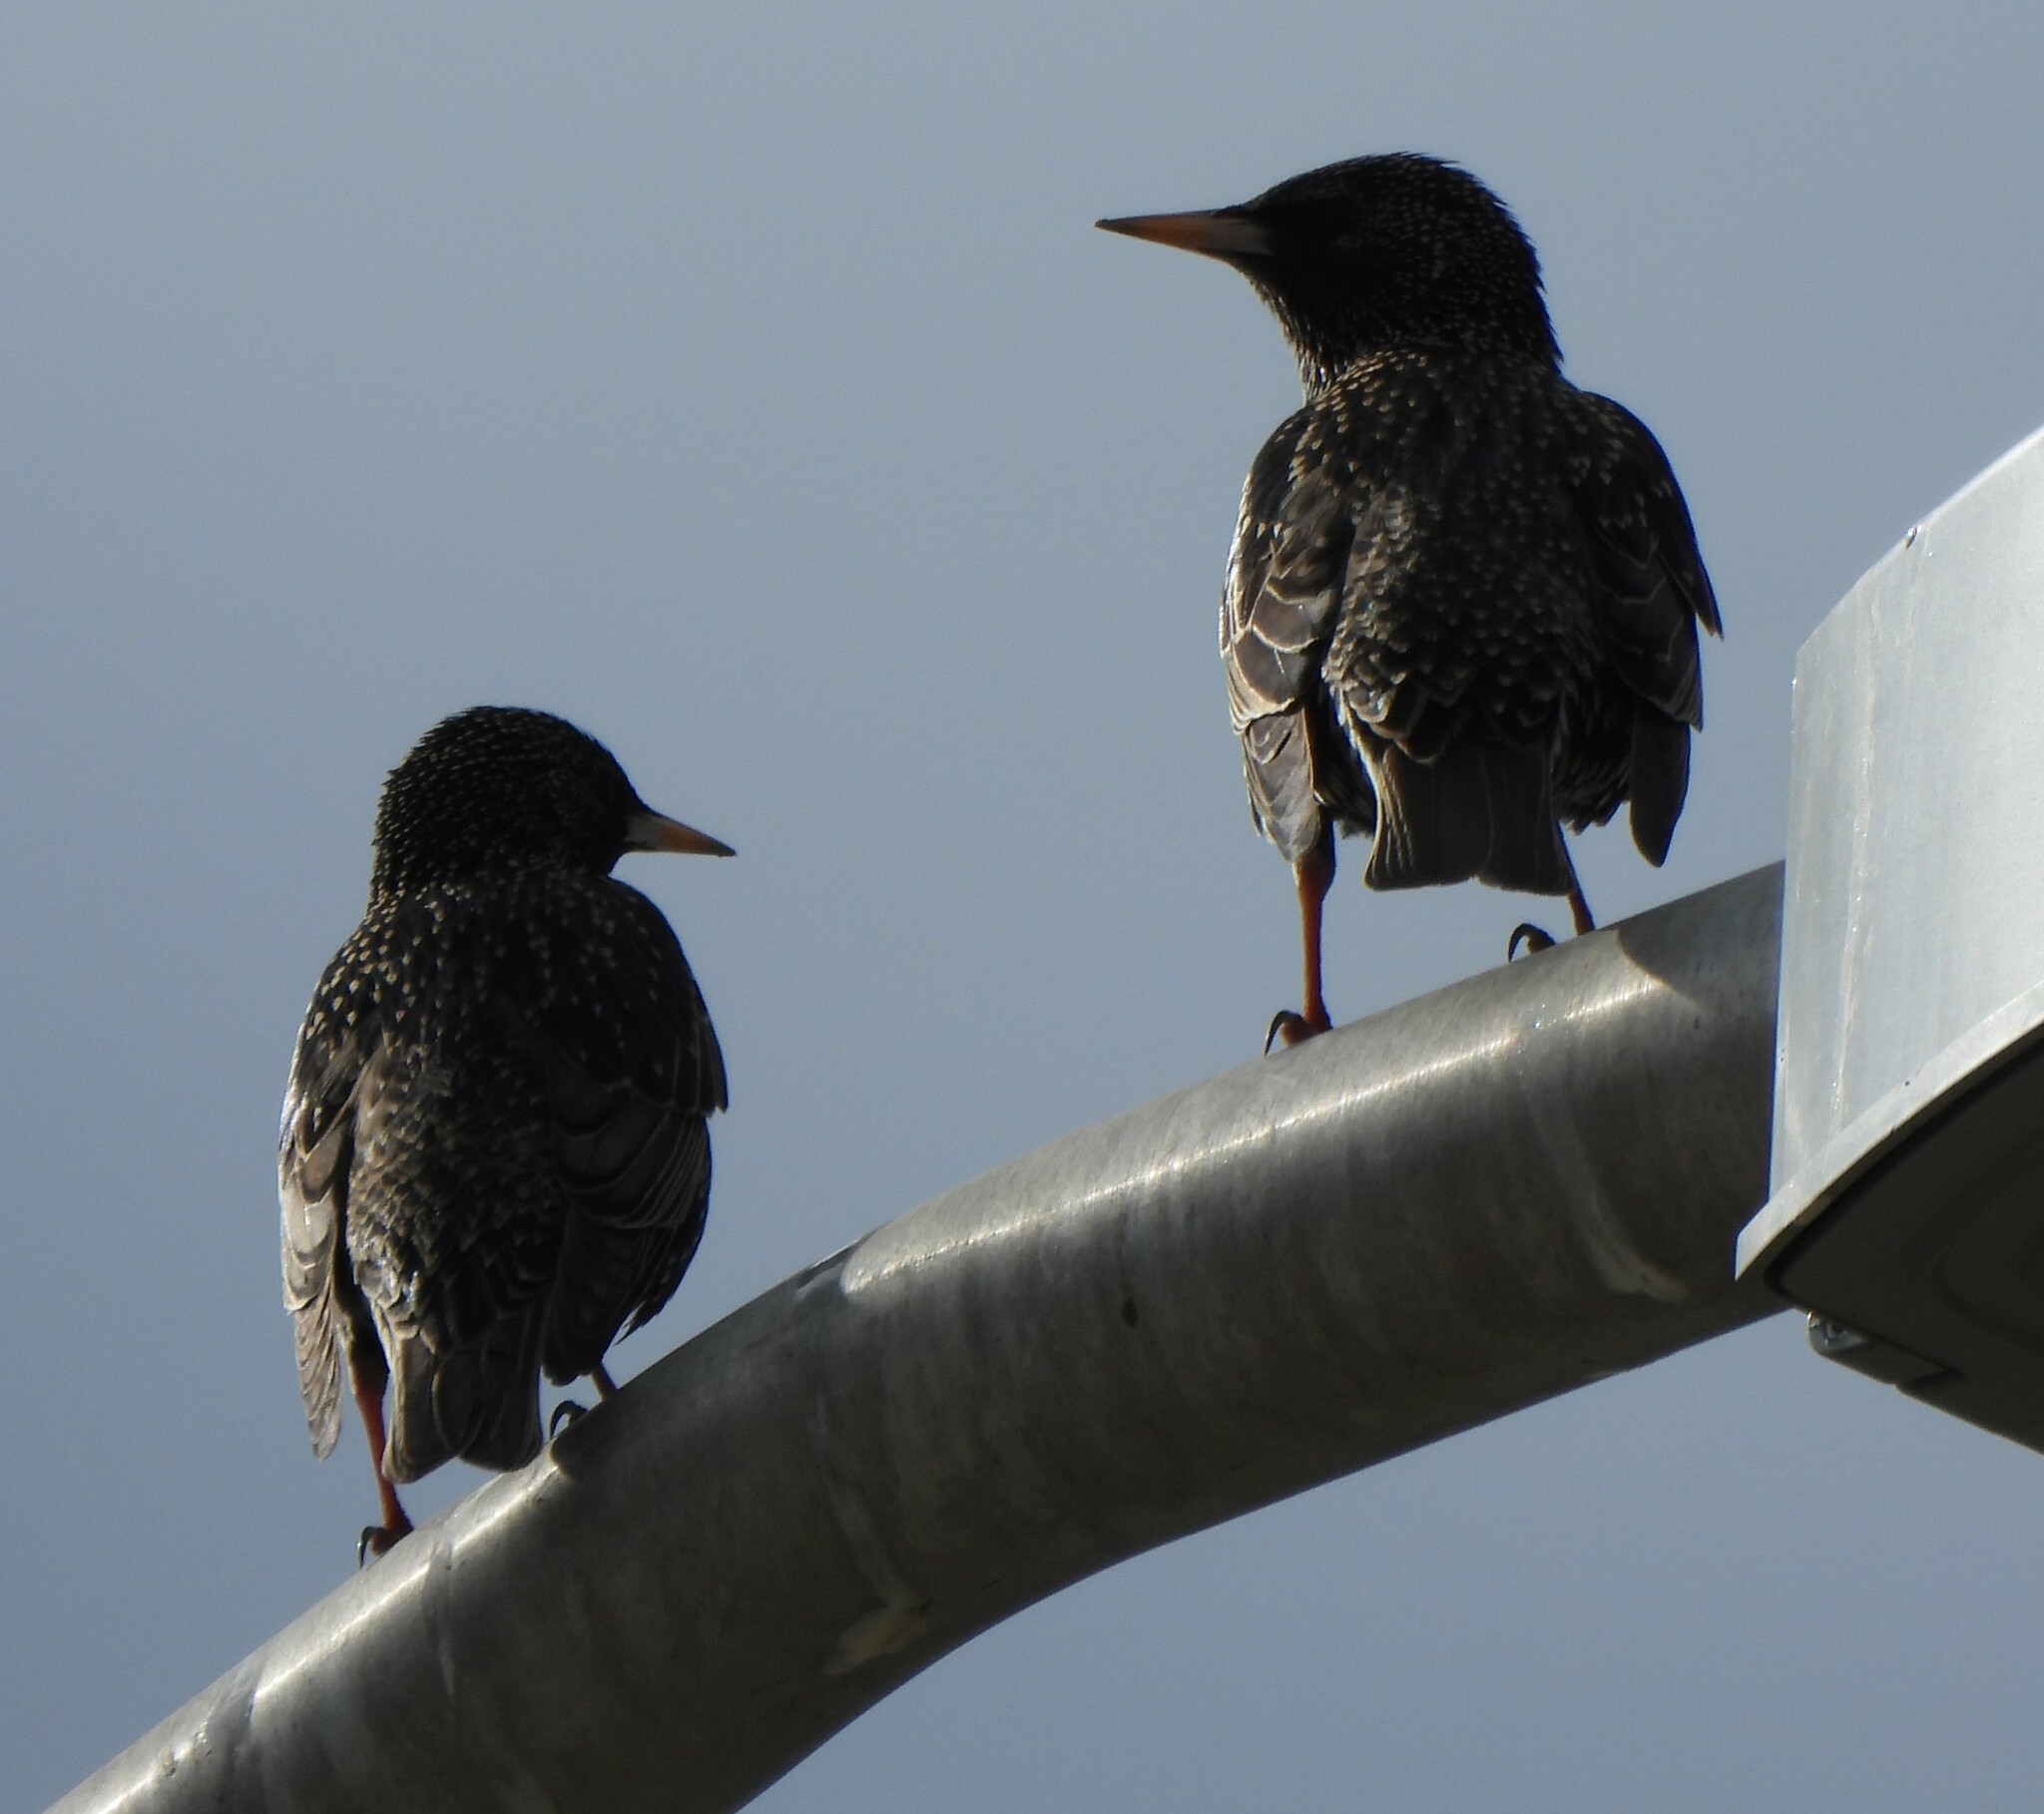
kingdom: Animalia
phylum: Chordata
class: Aves
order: Passeriformes
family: Sturnidae
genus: Sturnus
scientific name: Sturnus vulgaris
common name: Common starling
